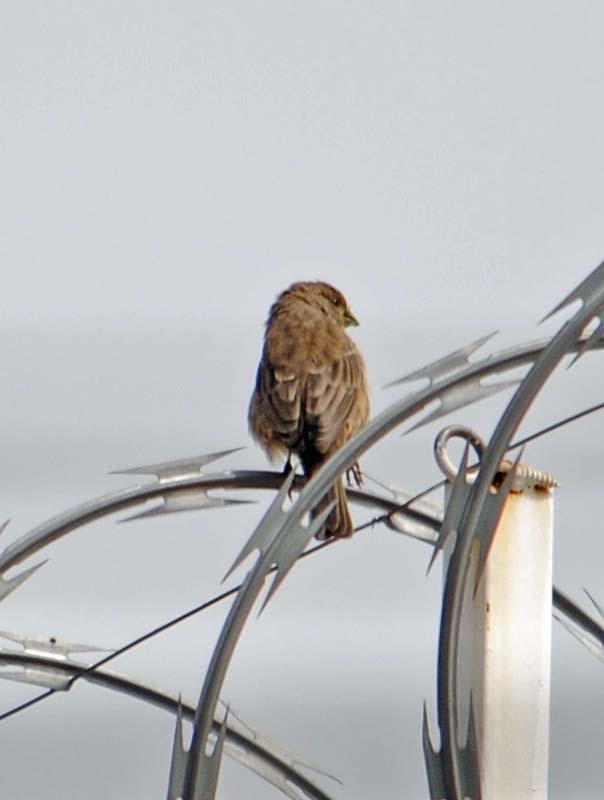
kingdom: Animalia
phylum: Chordata
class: Aves
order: Passeriformes
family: Fringillidae
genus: Haemorhous
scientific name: Haemorhous mexicanus
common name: House finch
